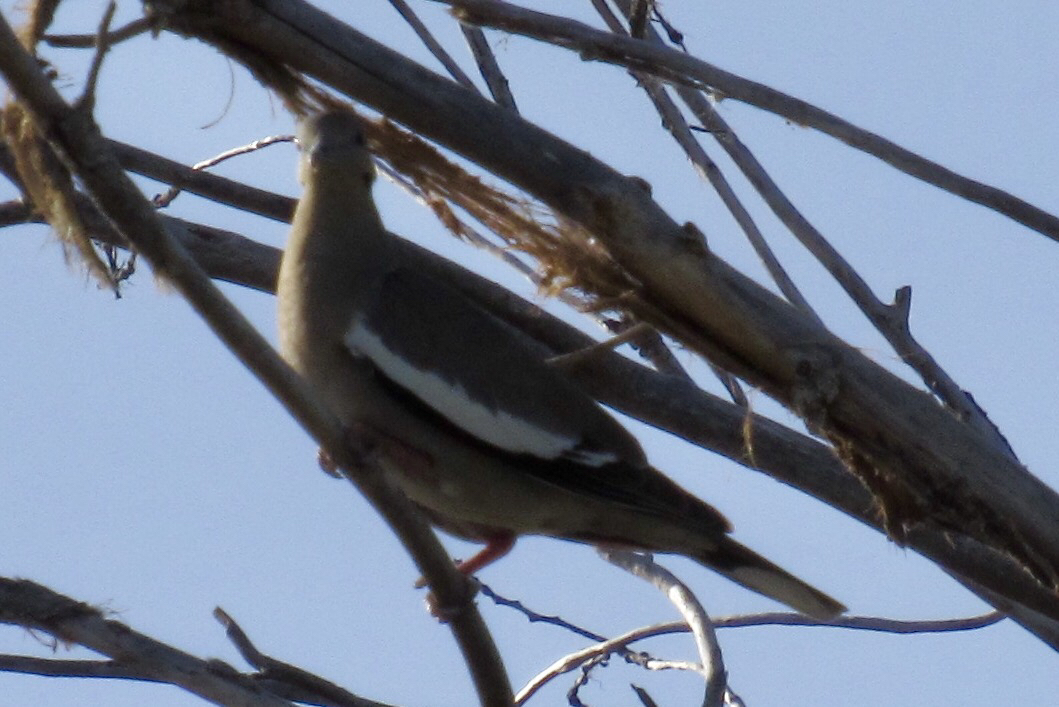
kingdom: Animalia
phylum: Chordata
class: Aves
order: Columbiformes
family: Columbidae
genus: Zenaida
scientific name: Zenaida asiatica
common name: White-winged dove
